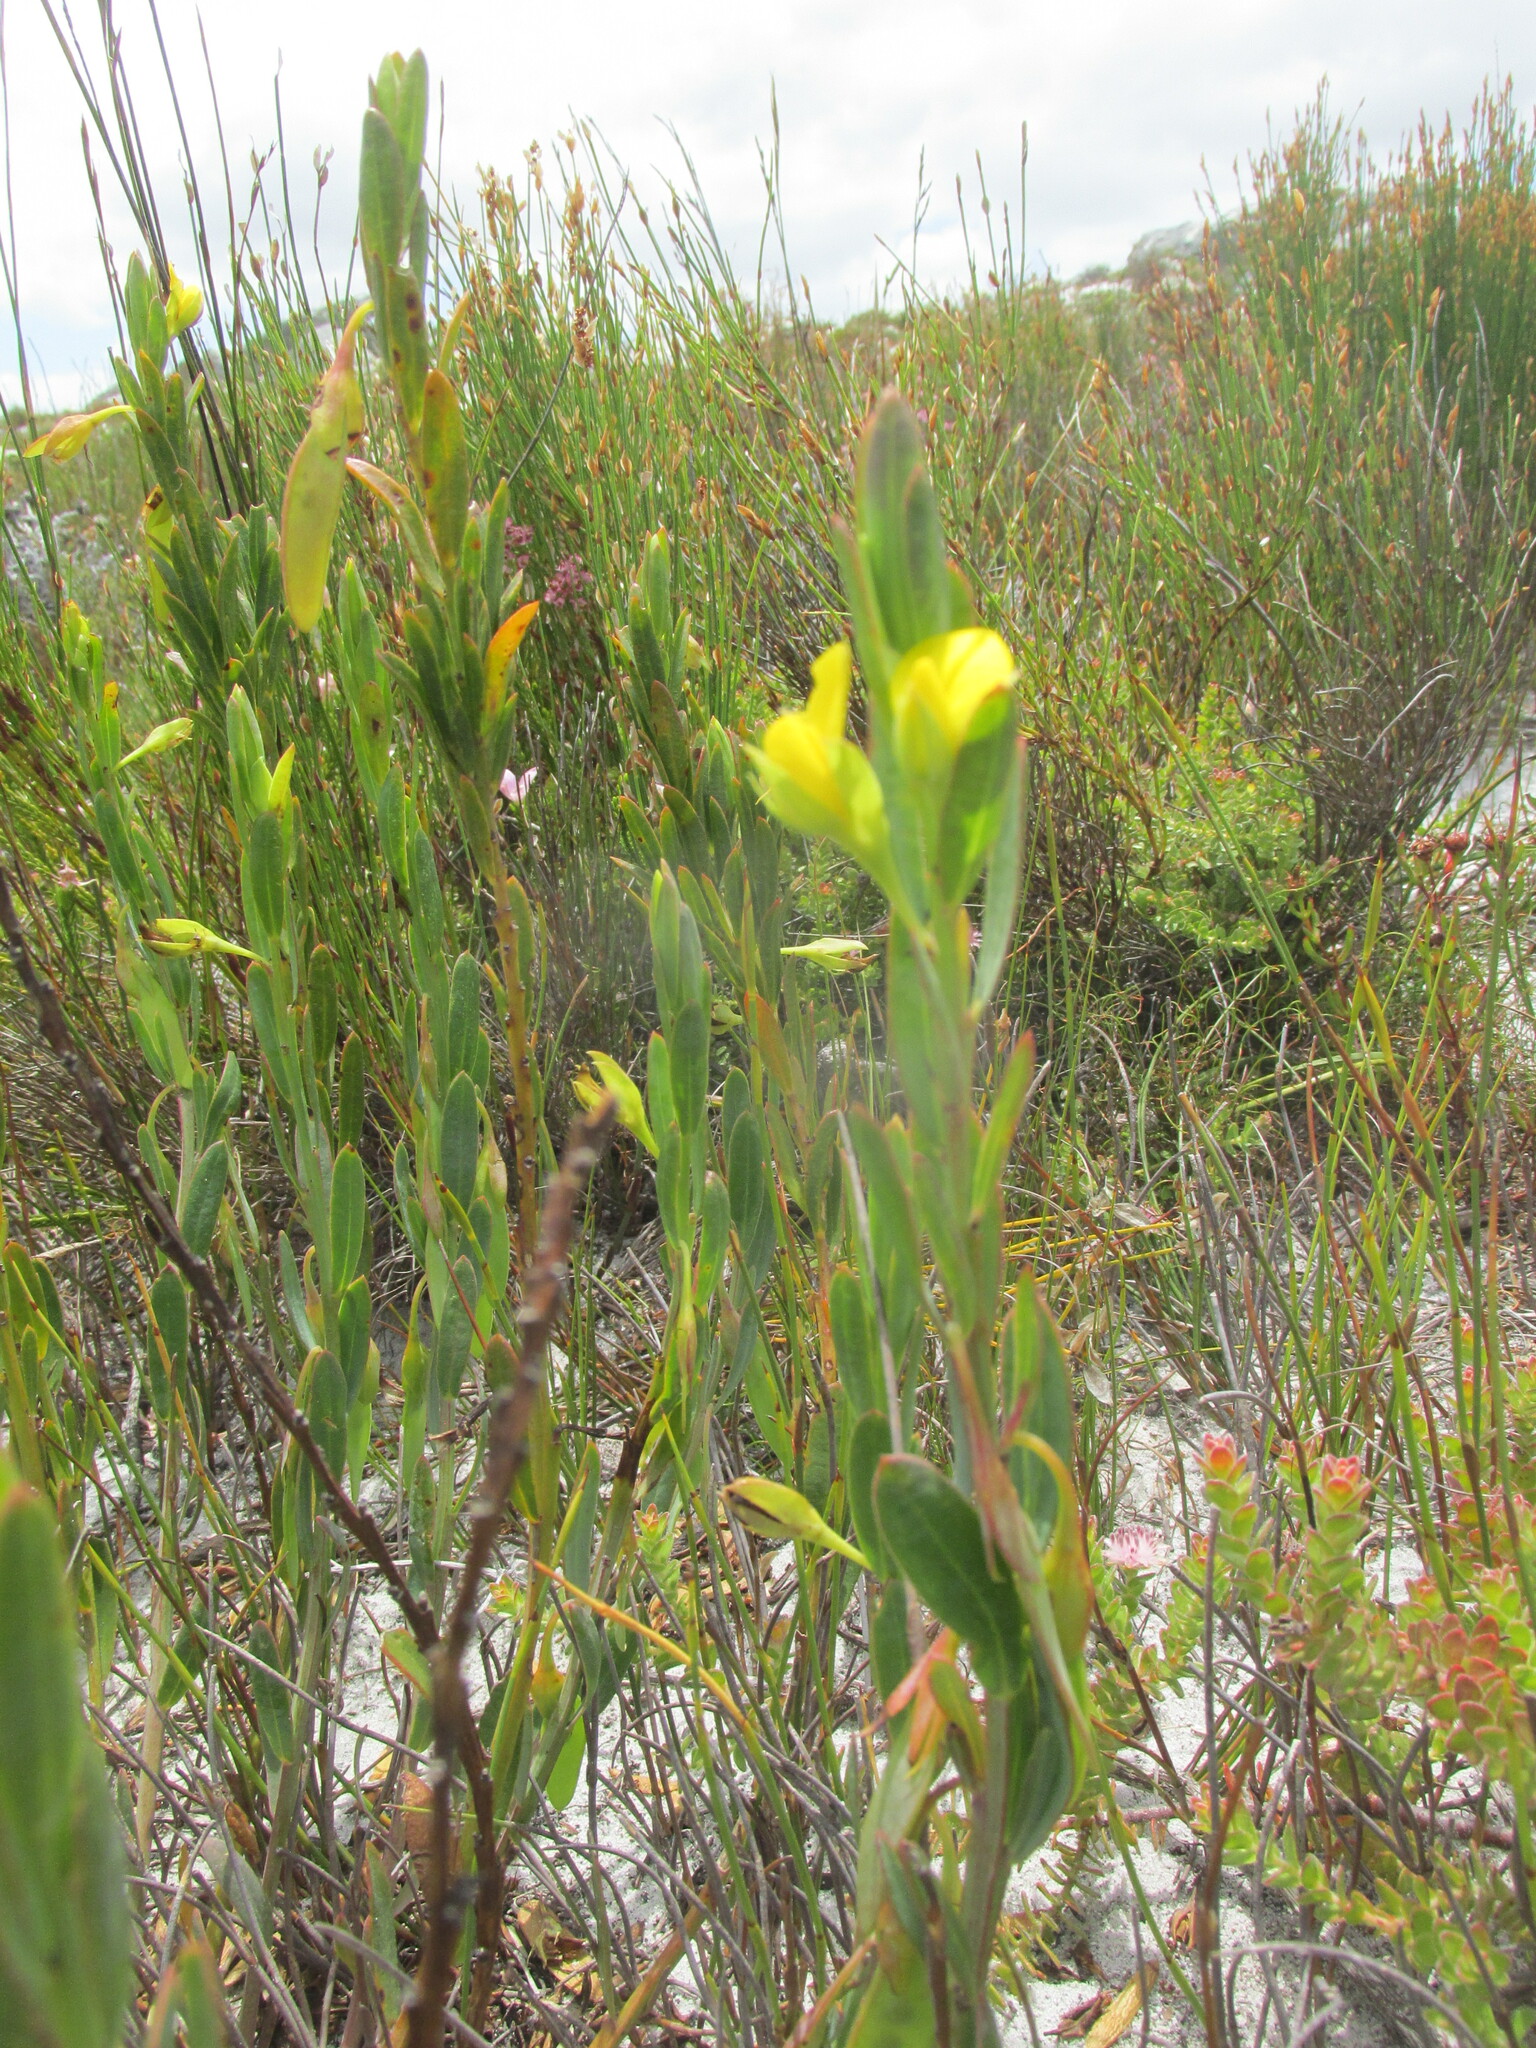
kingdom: Plantae
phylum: Tracheophyta
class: Magnoliopsida
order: Fabales
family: Fabaceae
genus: Rafnia
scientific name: Rafnia capensis
